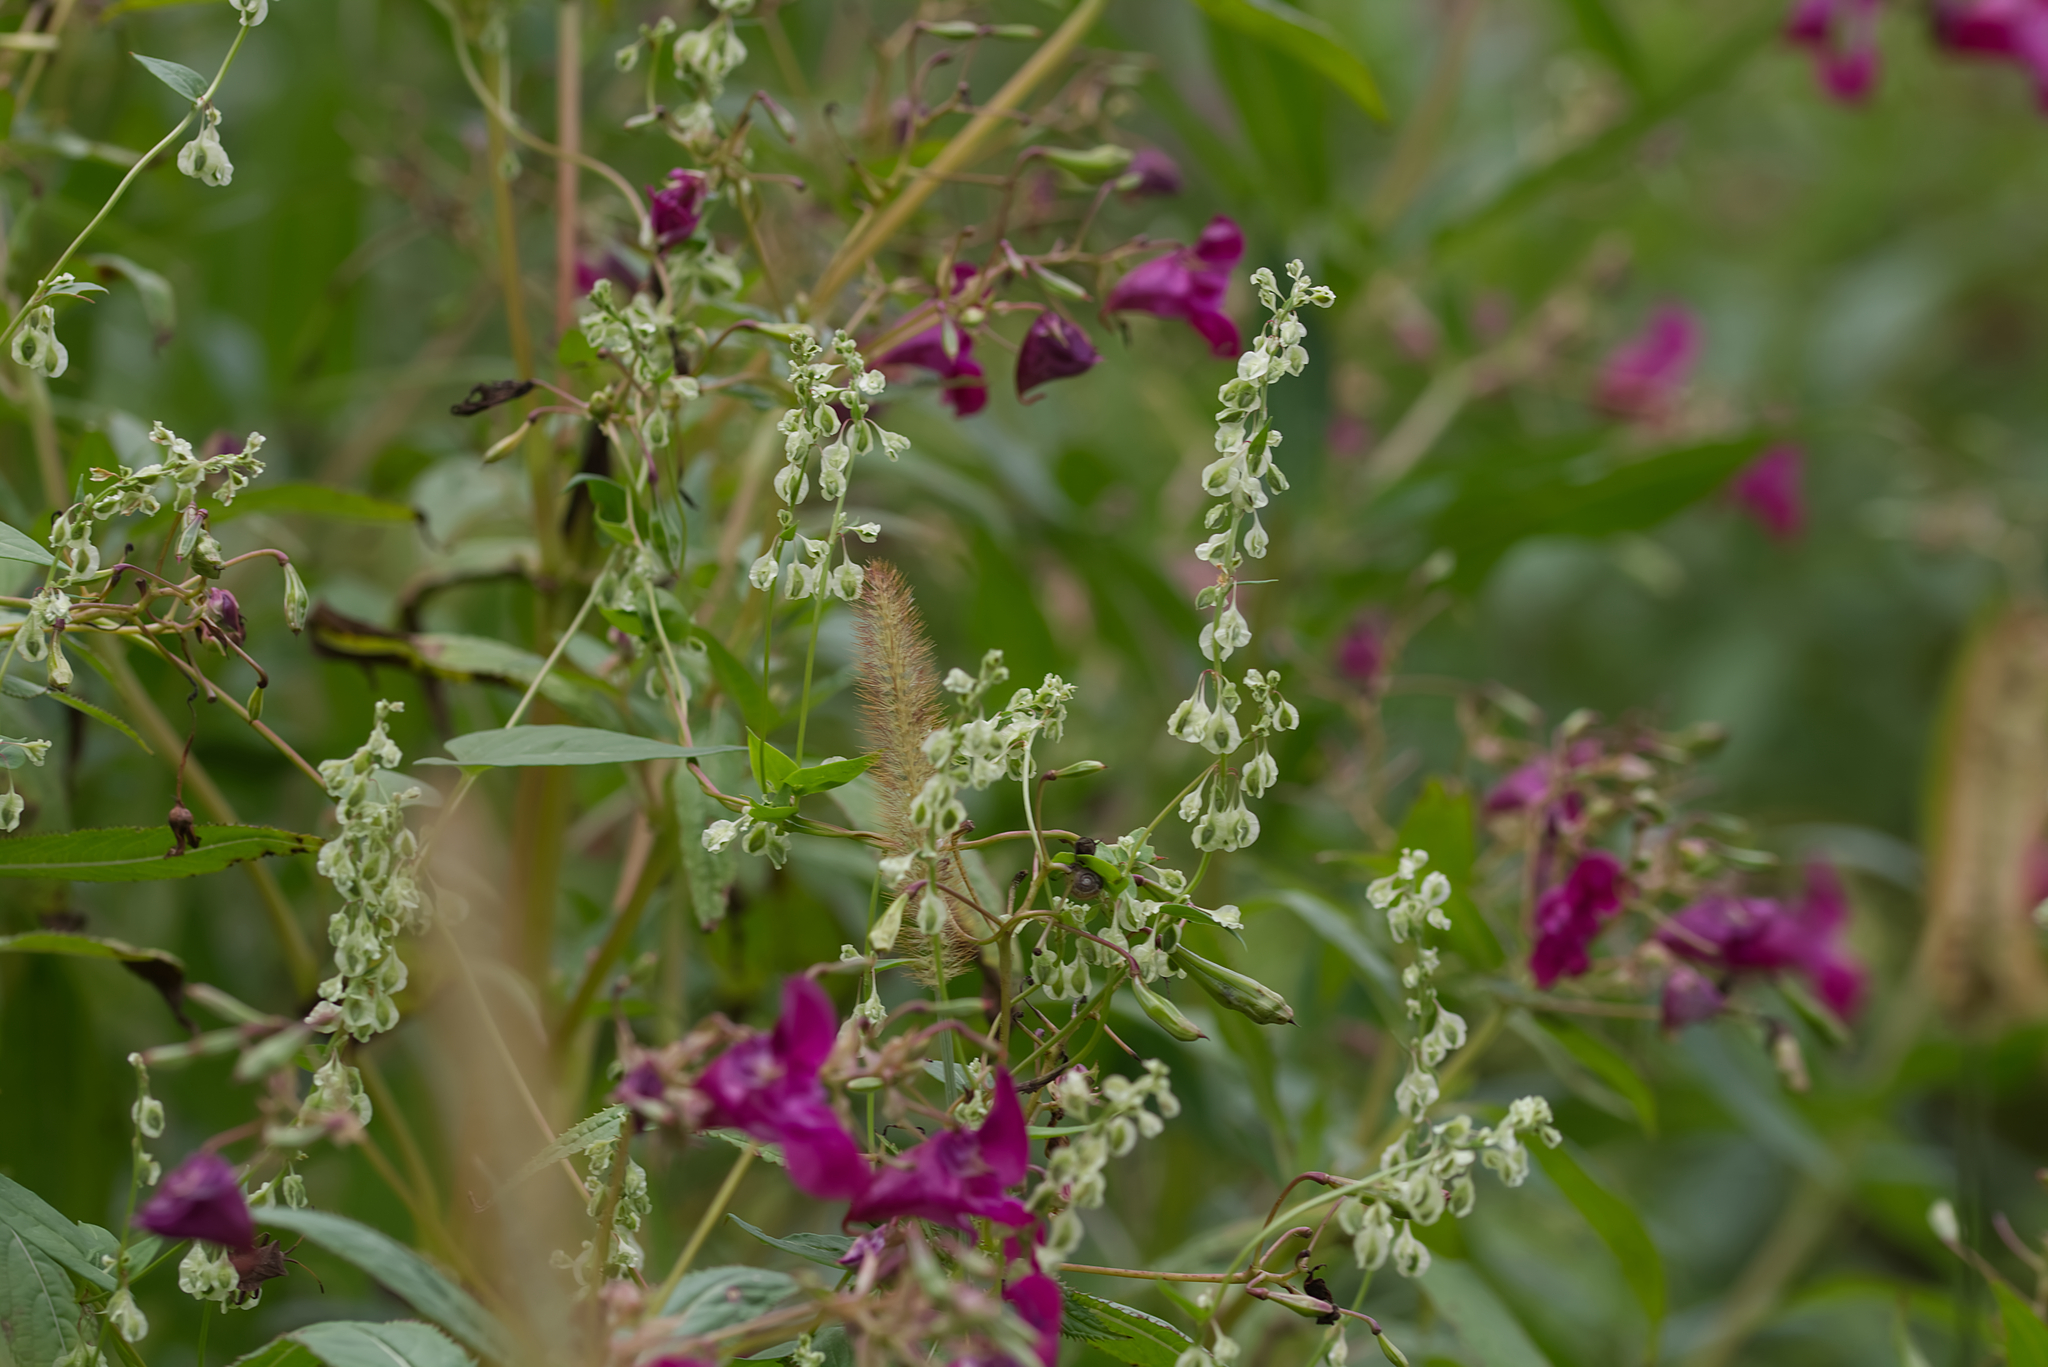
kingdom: Plantae
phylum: Tracheophyta
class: Magnoliopsida
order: Caryophyllales
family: Polygonaceae
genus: Fallopia
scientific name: Fallopia dumetorum
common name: Copse-bindweed
